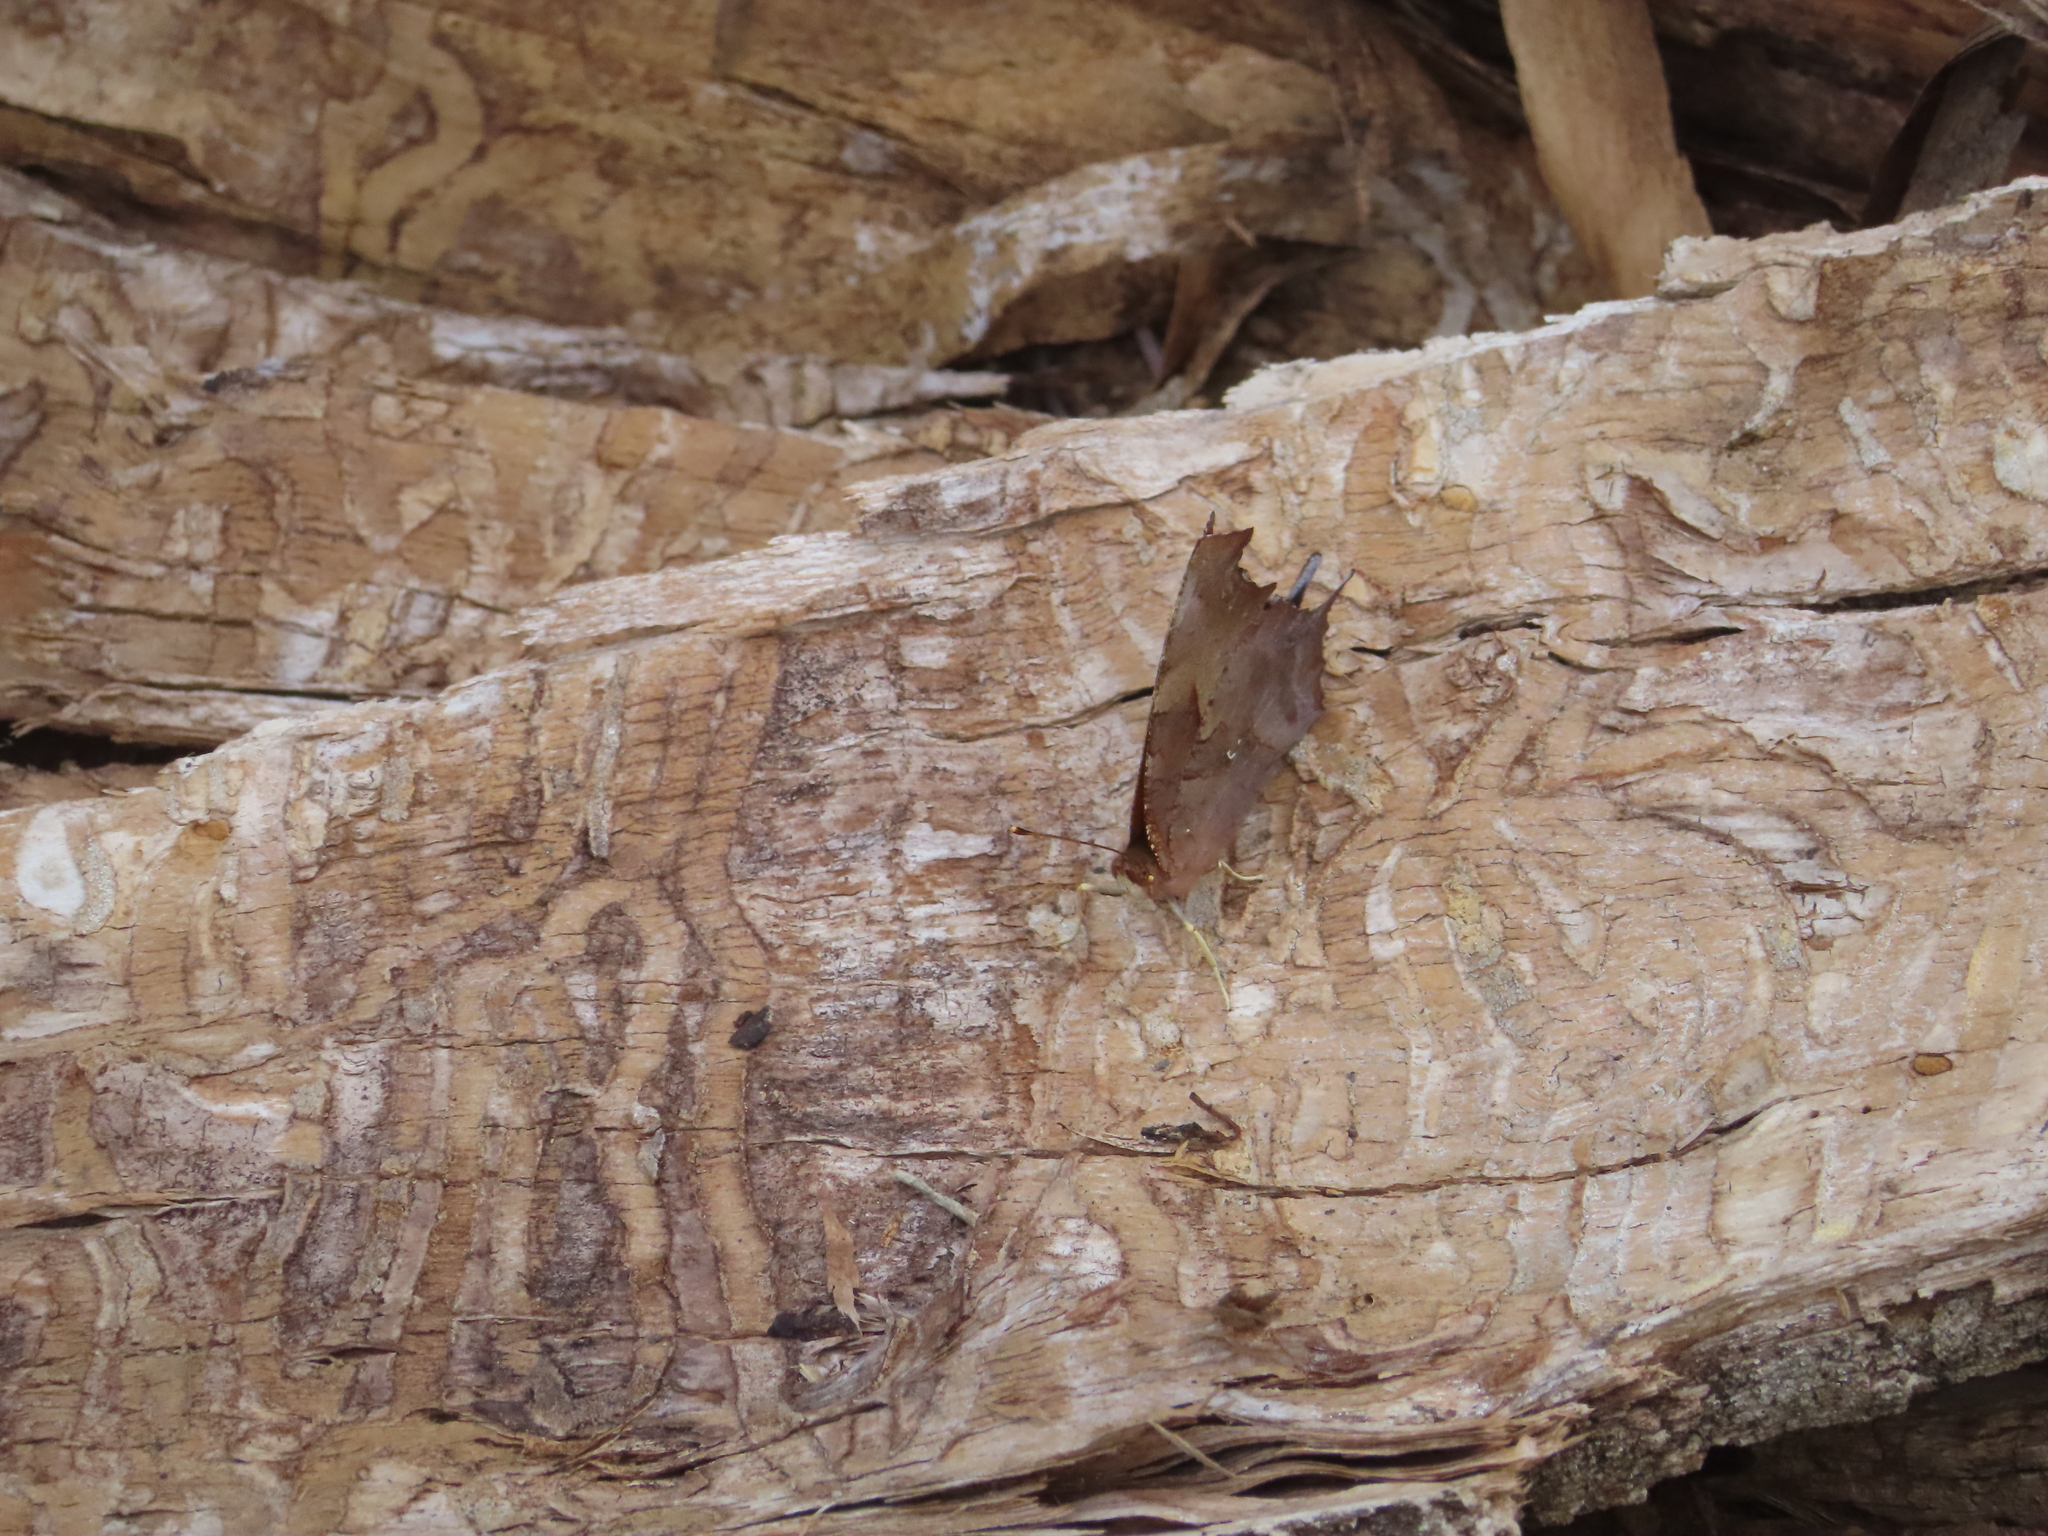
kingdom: Animalia
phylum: Arthropoda
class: Insecta
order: Lepidoptera
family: Nymphalidae
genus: Polygonia
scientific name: Polygonia interrogationis
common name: Question mark
